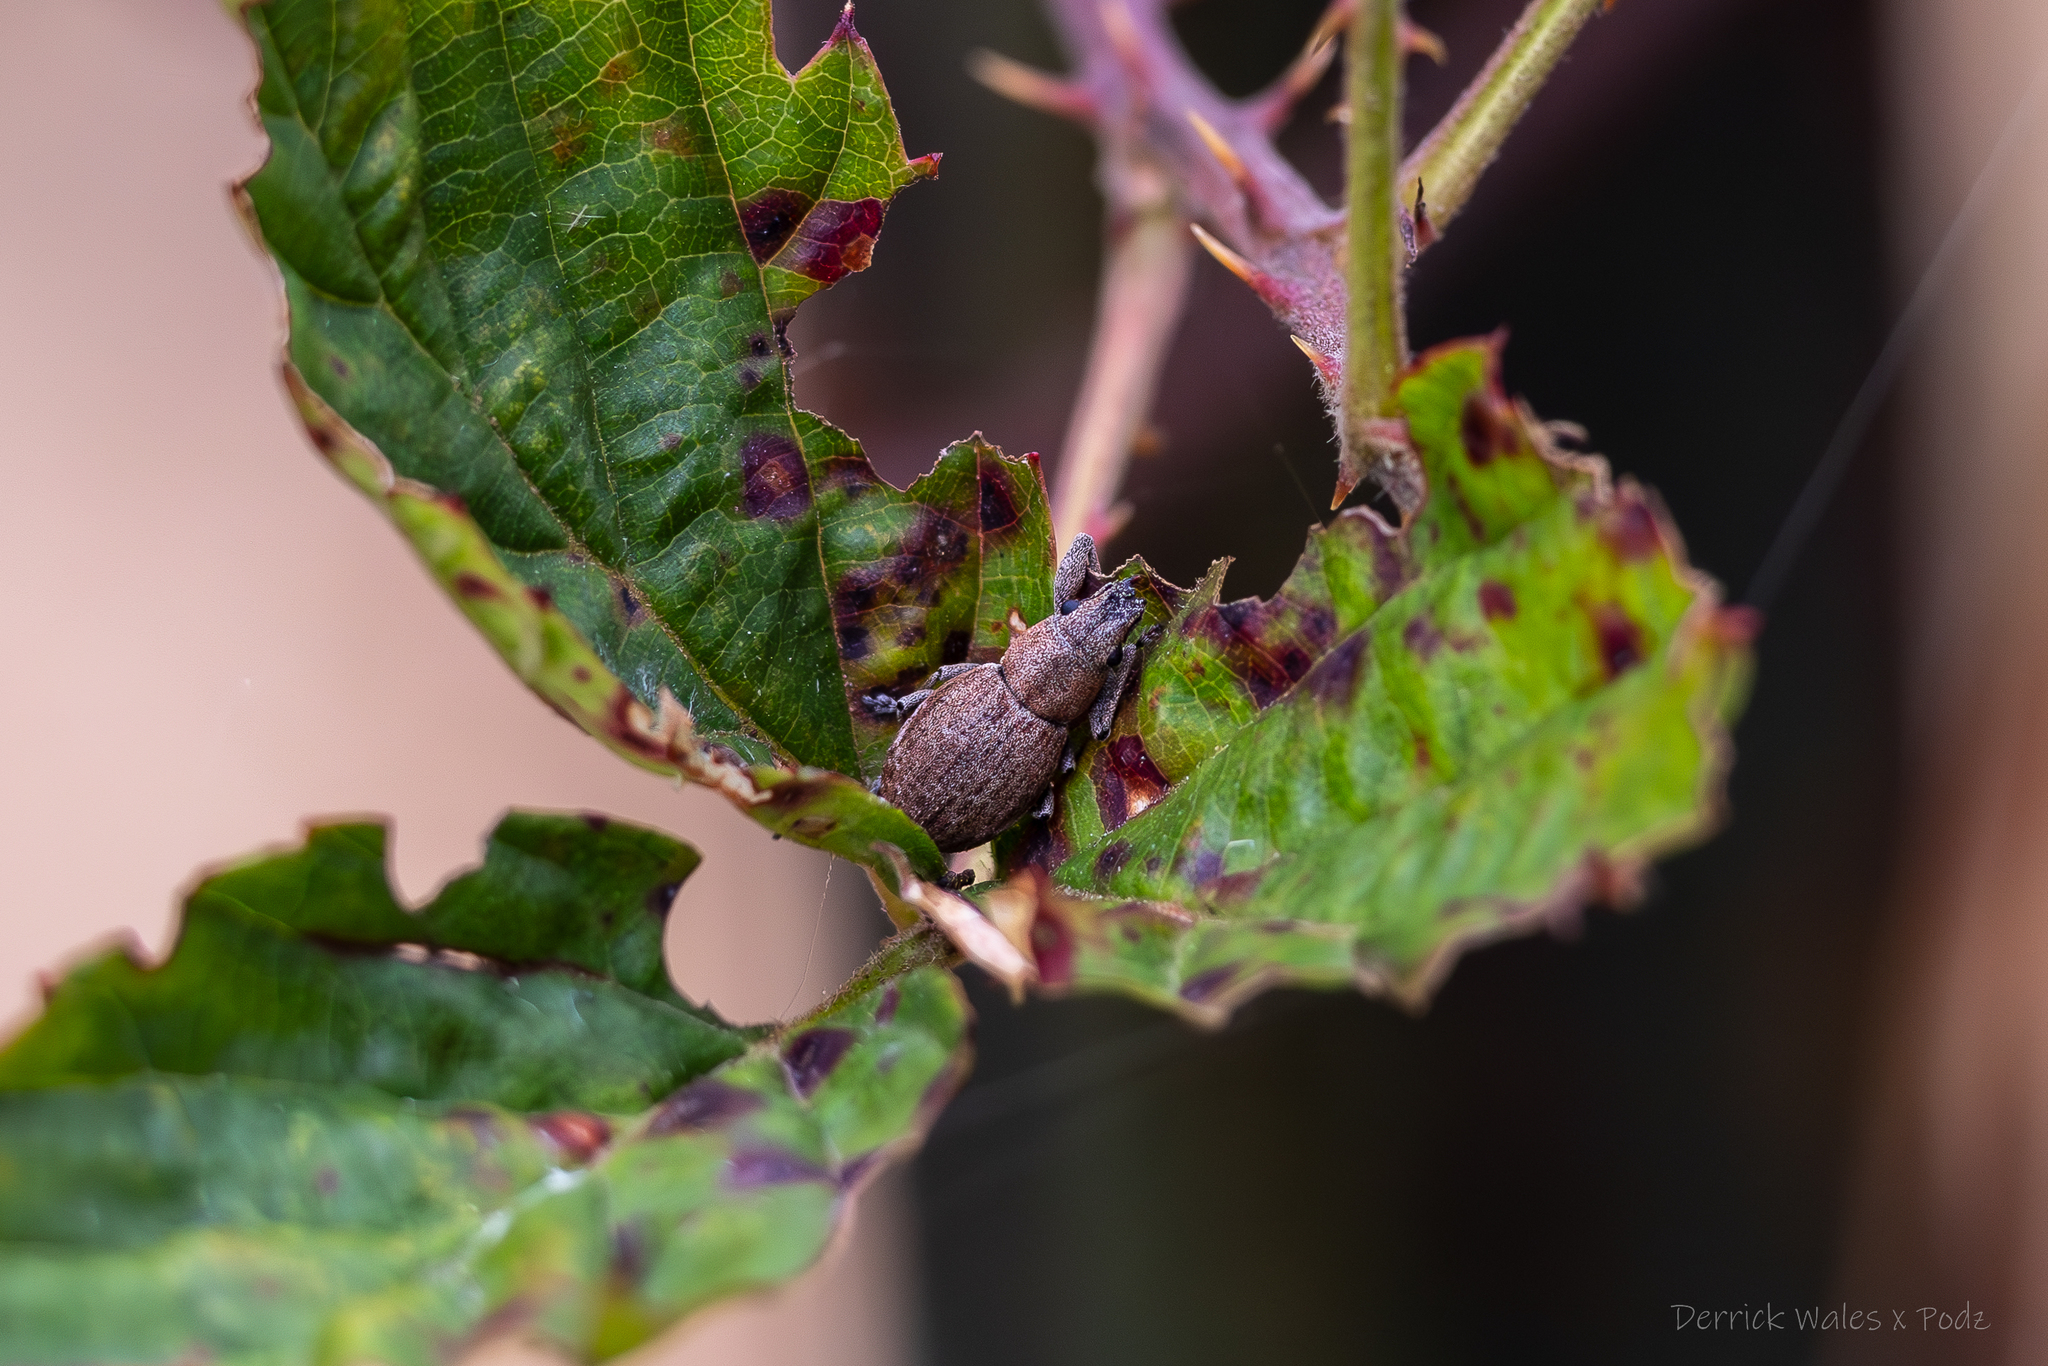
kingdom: Animalia
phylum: Arthropoda
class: Insecta
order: Coleoptera
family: Curculionidae
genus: Naupactus
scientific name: Naupactus cervinus
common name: Fuller rose beetle
